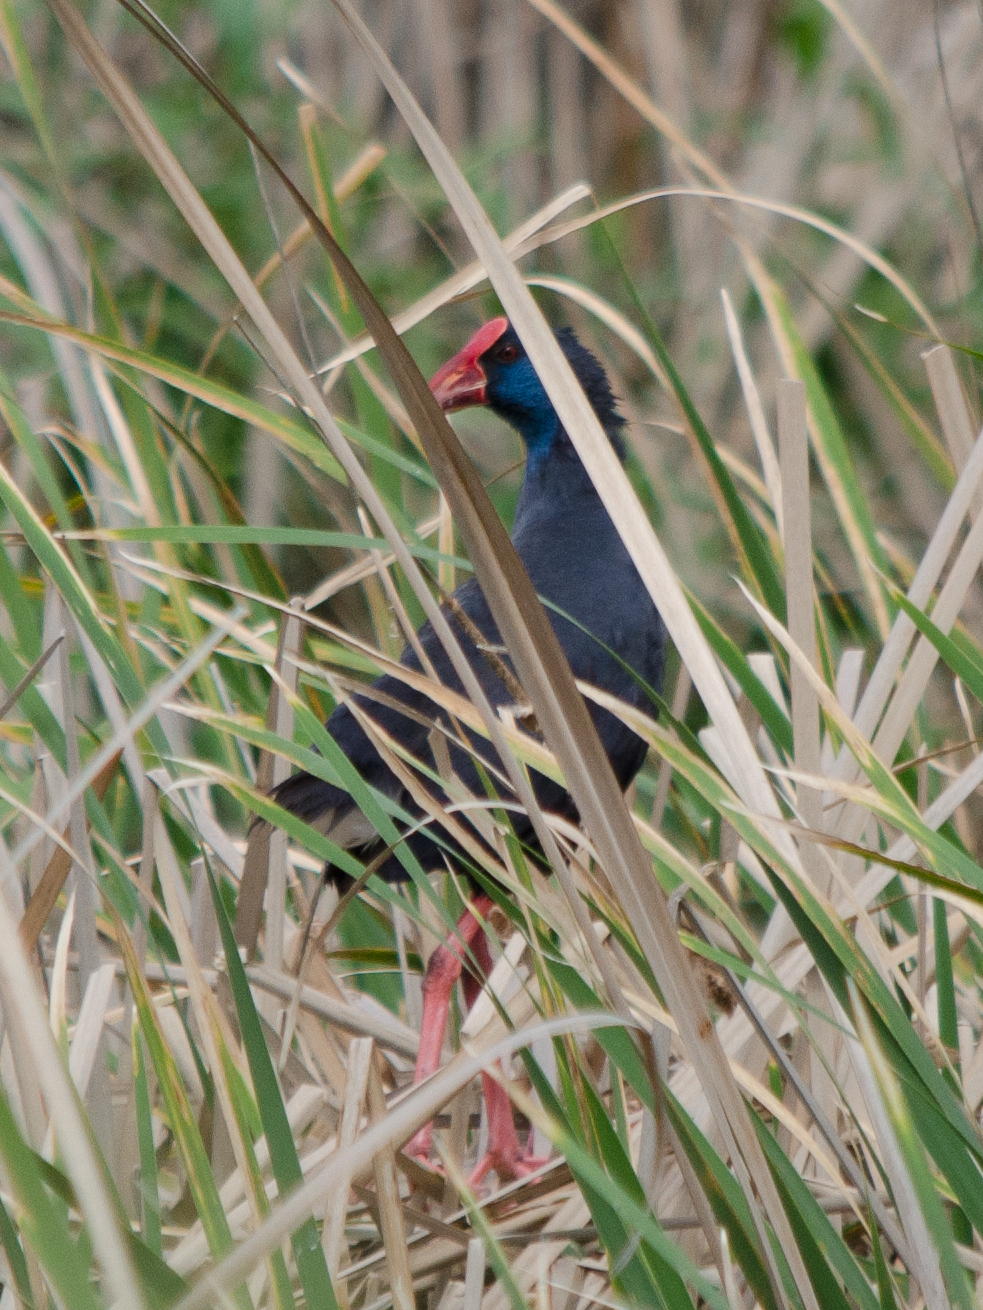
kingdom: Animalia
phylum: Chordata
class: Aves
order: Gruiformes
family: Rallidae
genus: Porphyrio
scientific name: Porphyrio porphyrio
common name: Purple swamphen
